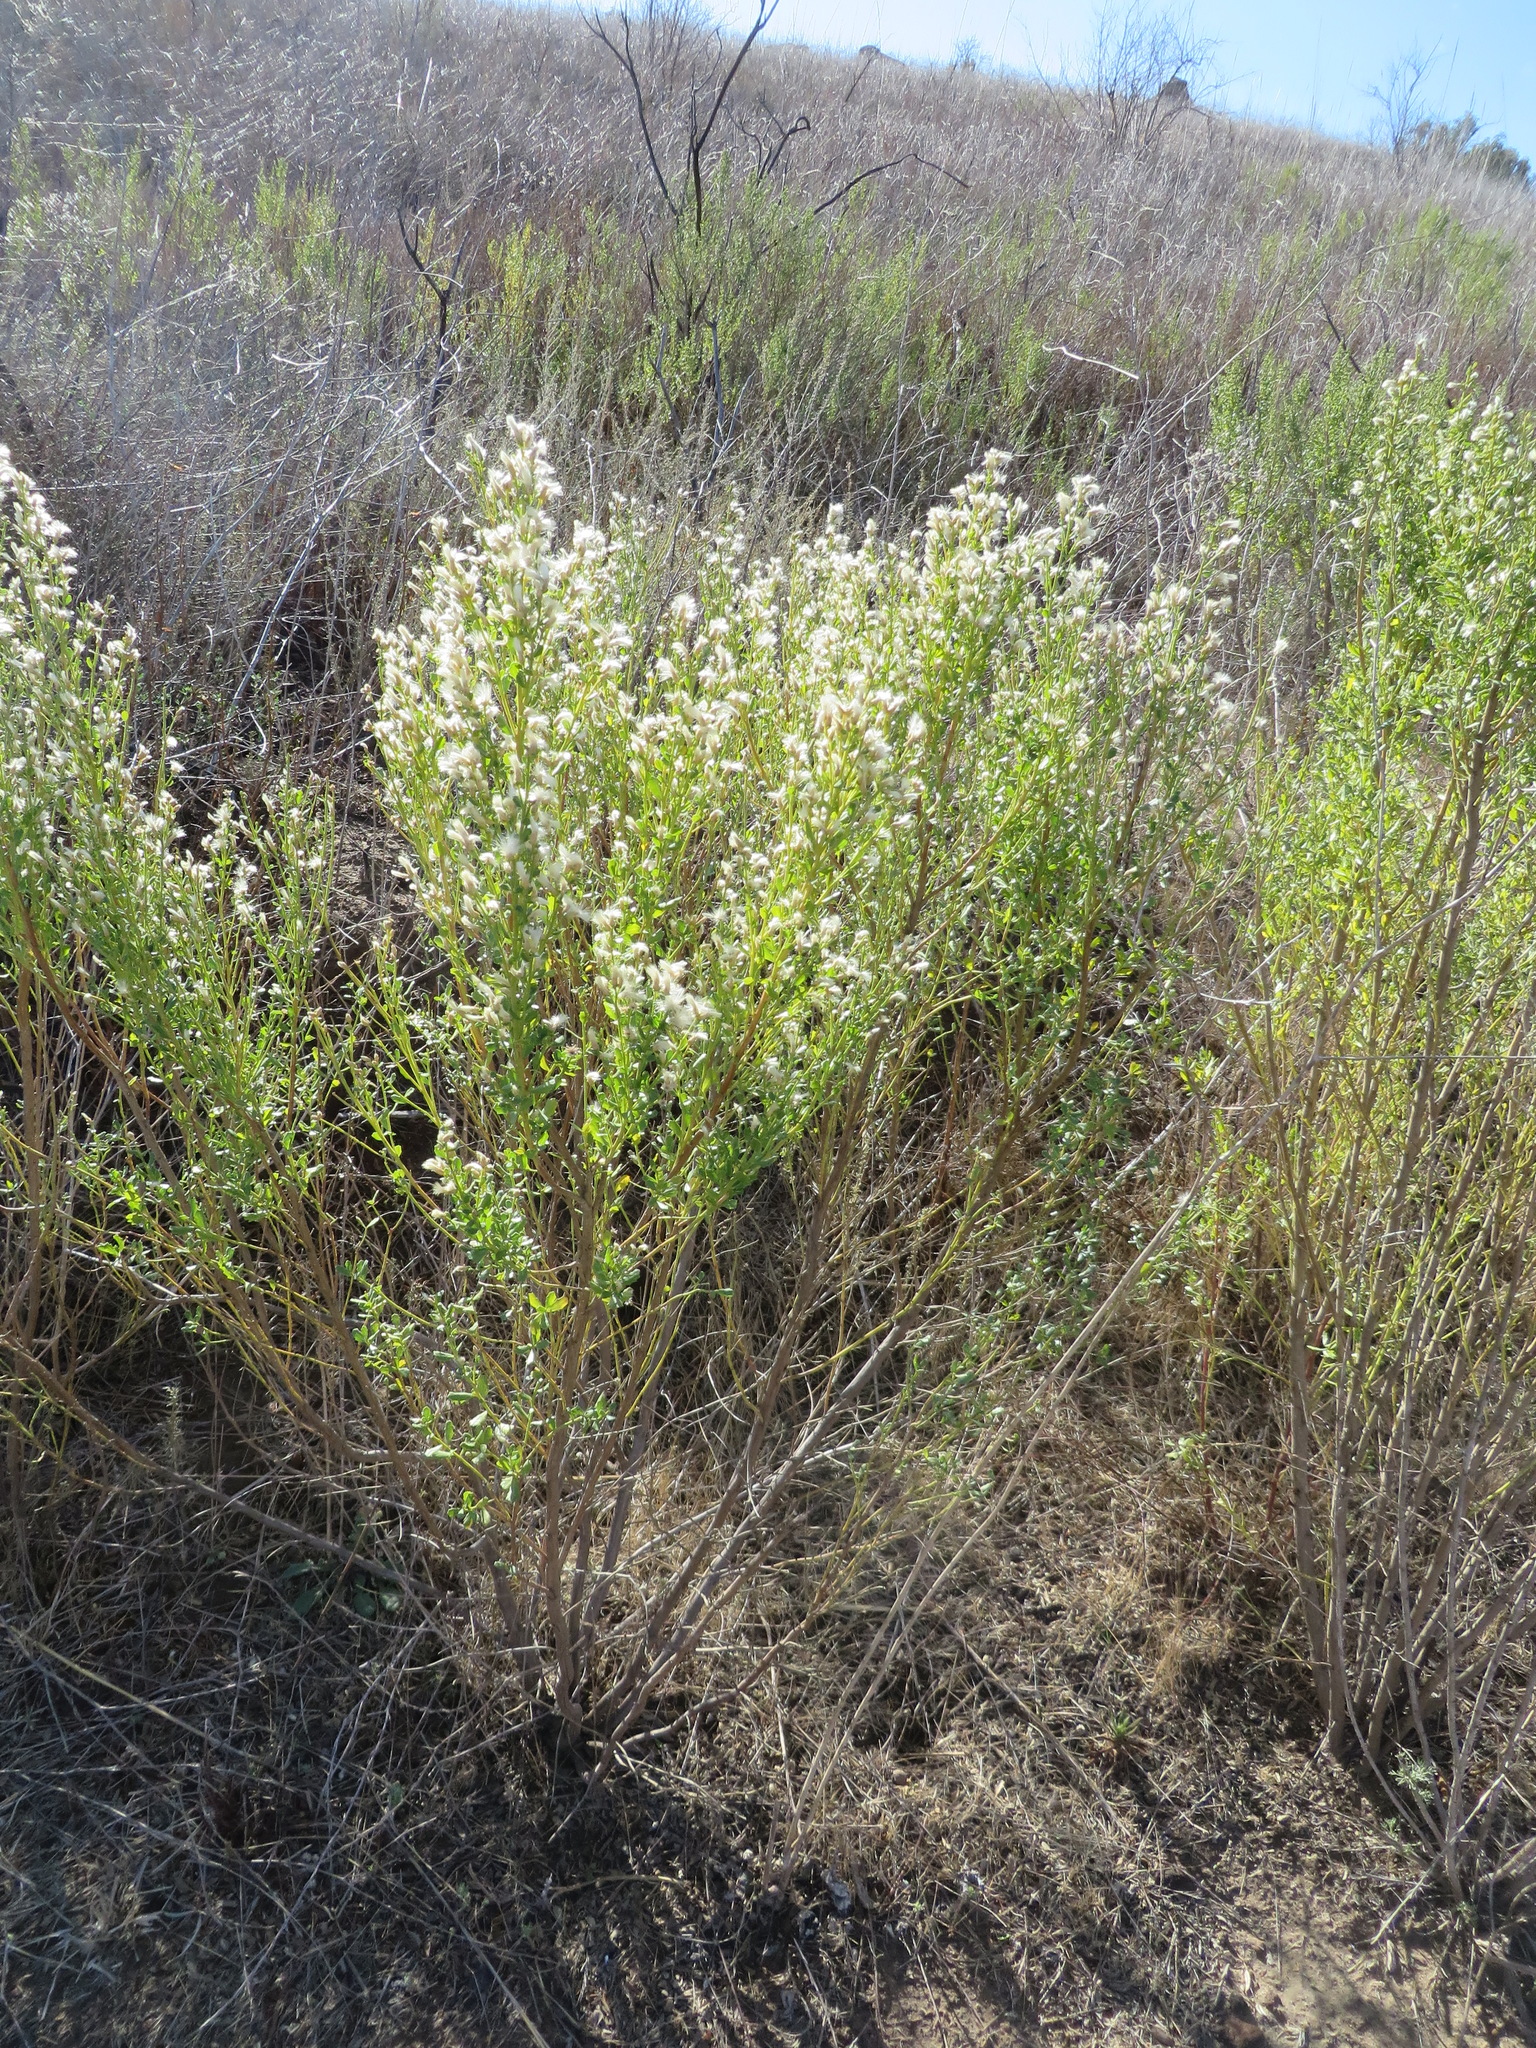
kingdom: Plantae
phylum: Tracheophyta
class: Magnoliopsida
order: Asterales
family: Asteraceae
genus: Baccharis
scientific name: Baccharis pilularis
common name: Coyotebrush
